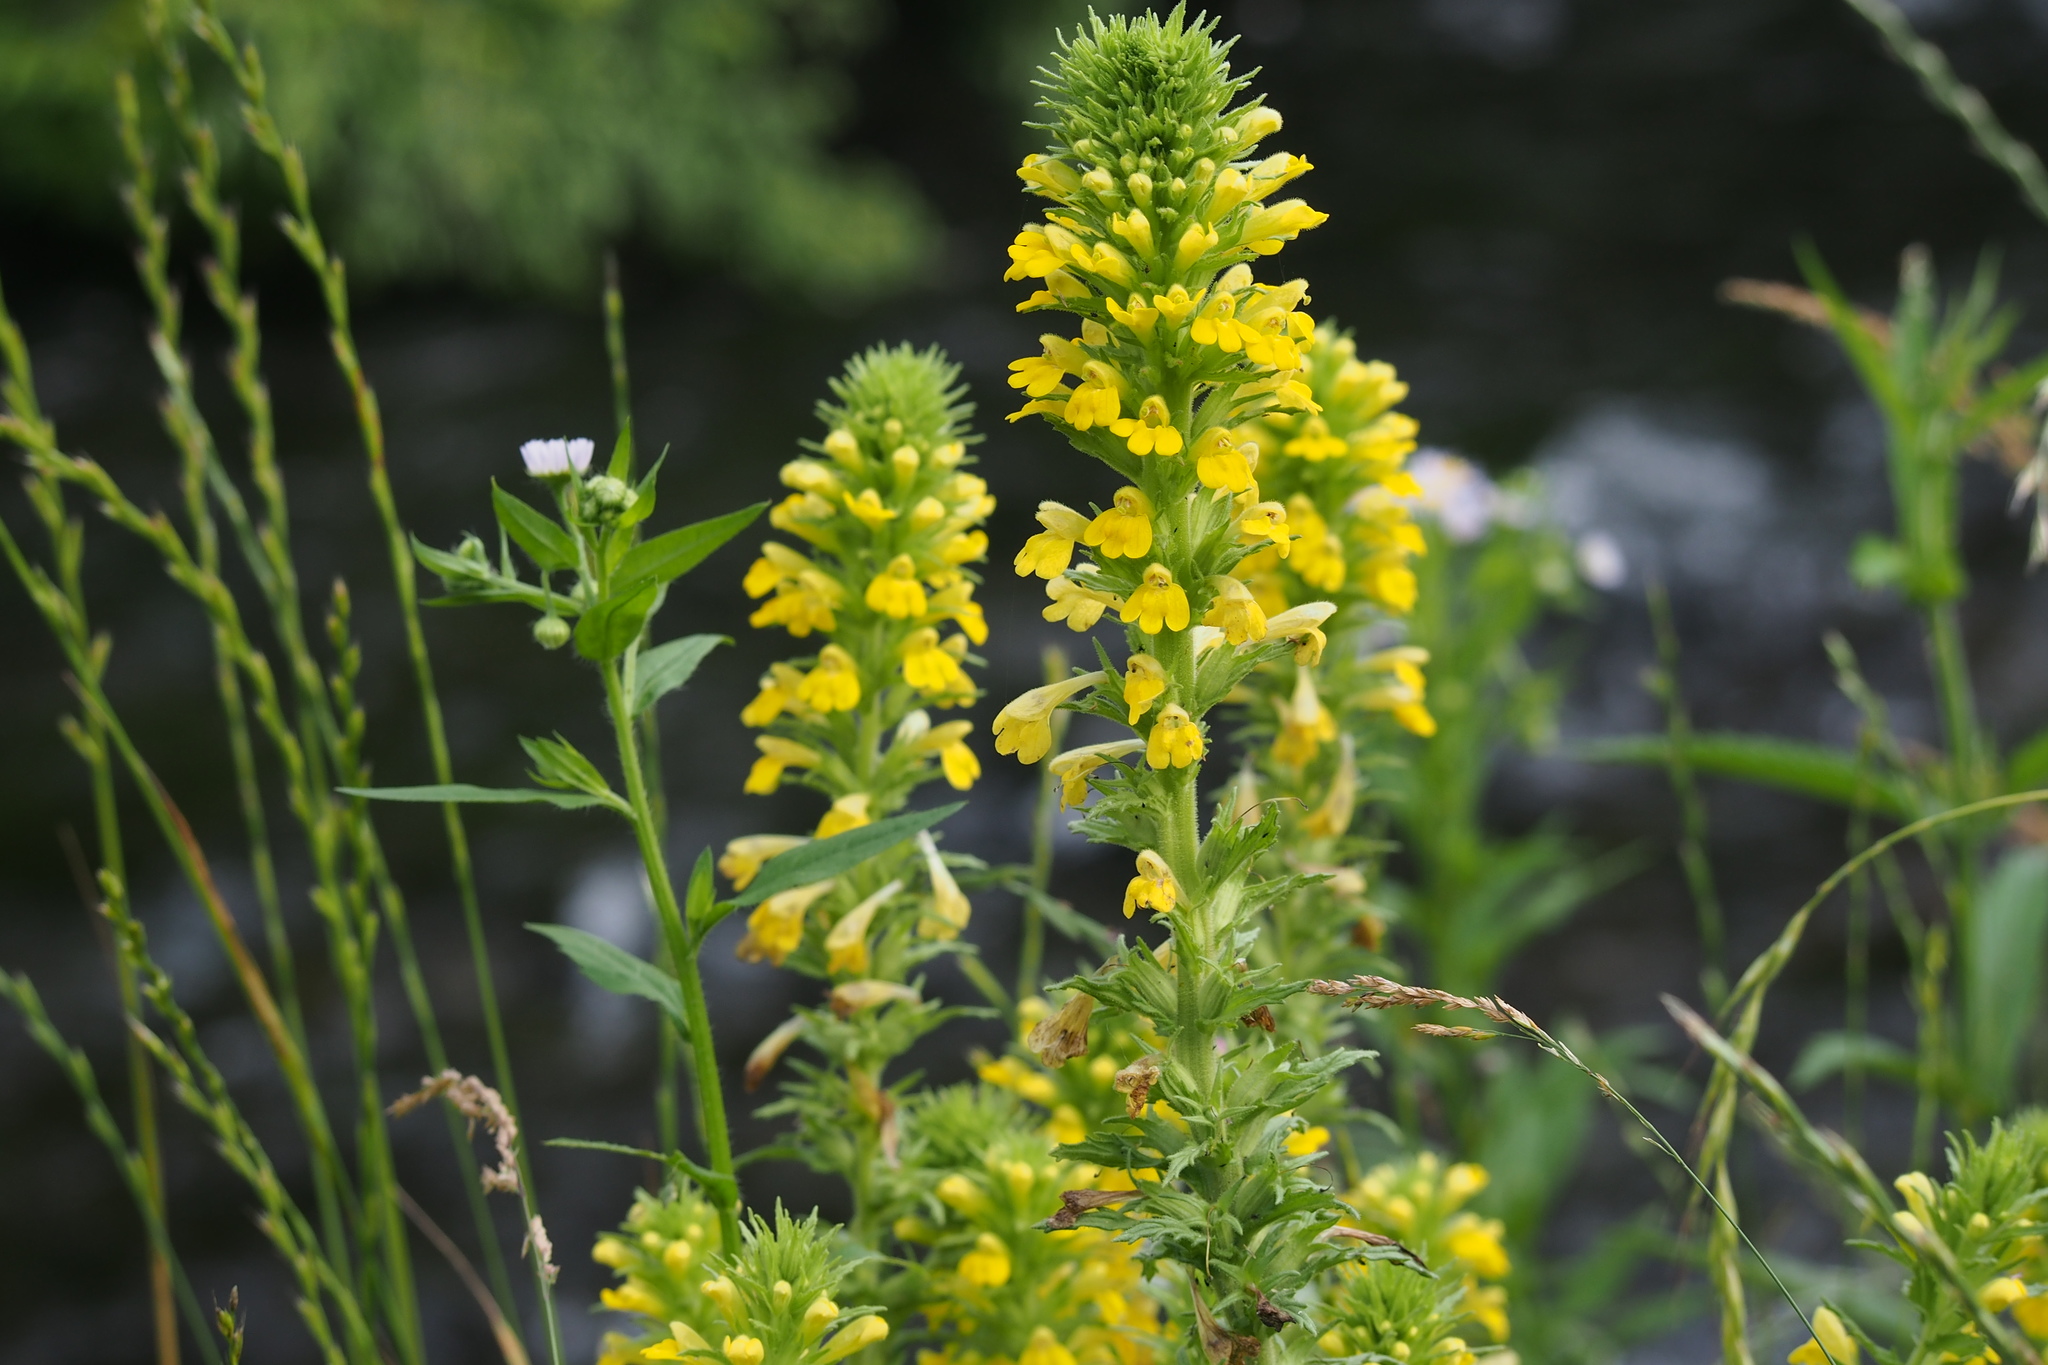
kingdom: Plantae
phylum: Tracheophyta
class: Magnoliopsida
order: Lamiales
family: Orobanchaceae
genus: Bellardia
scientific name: Bellardia viscosa
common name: Sticky parentucellia
